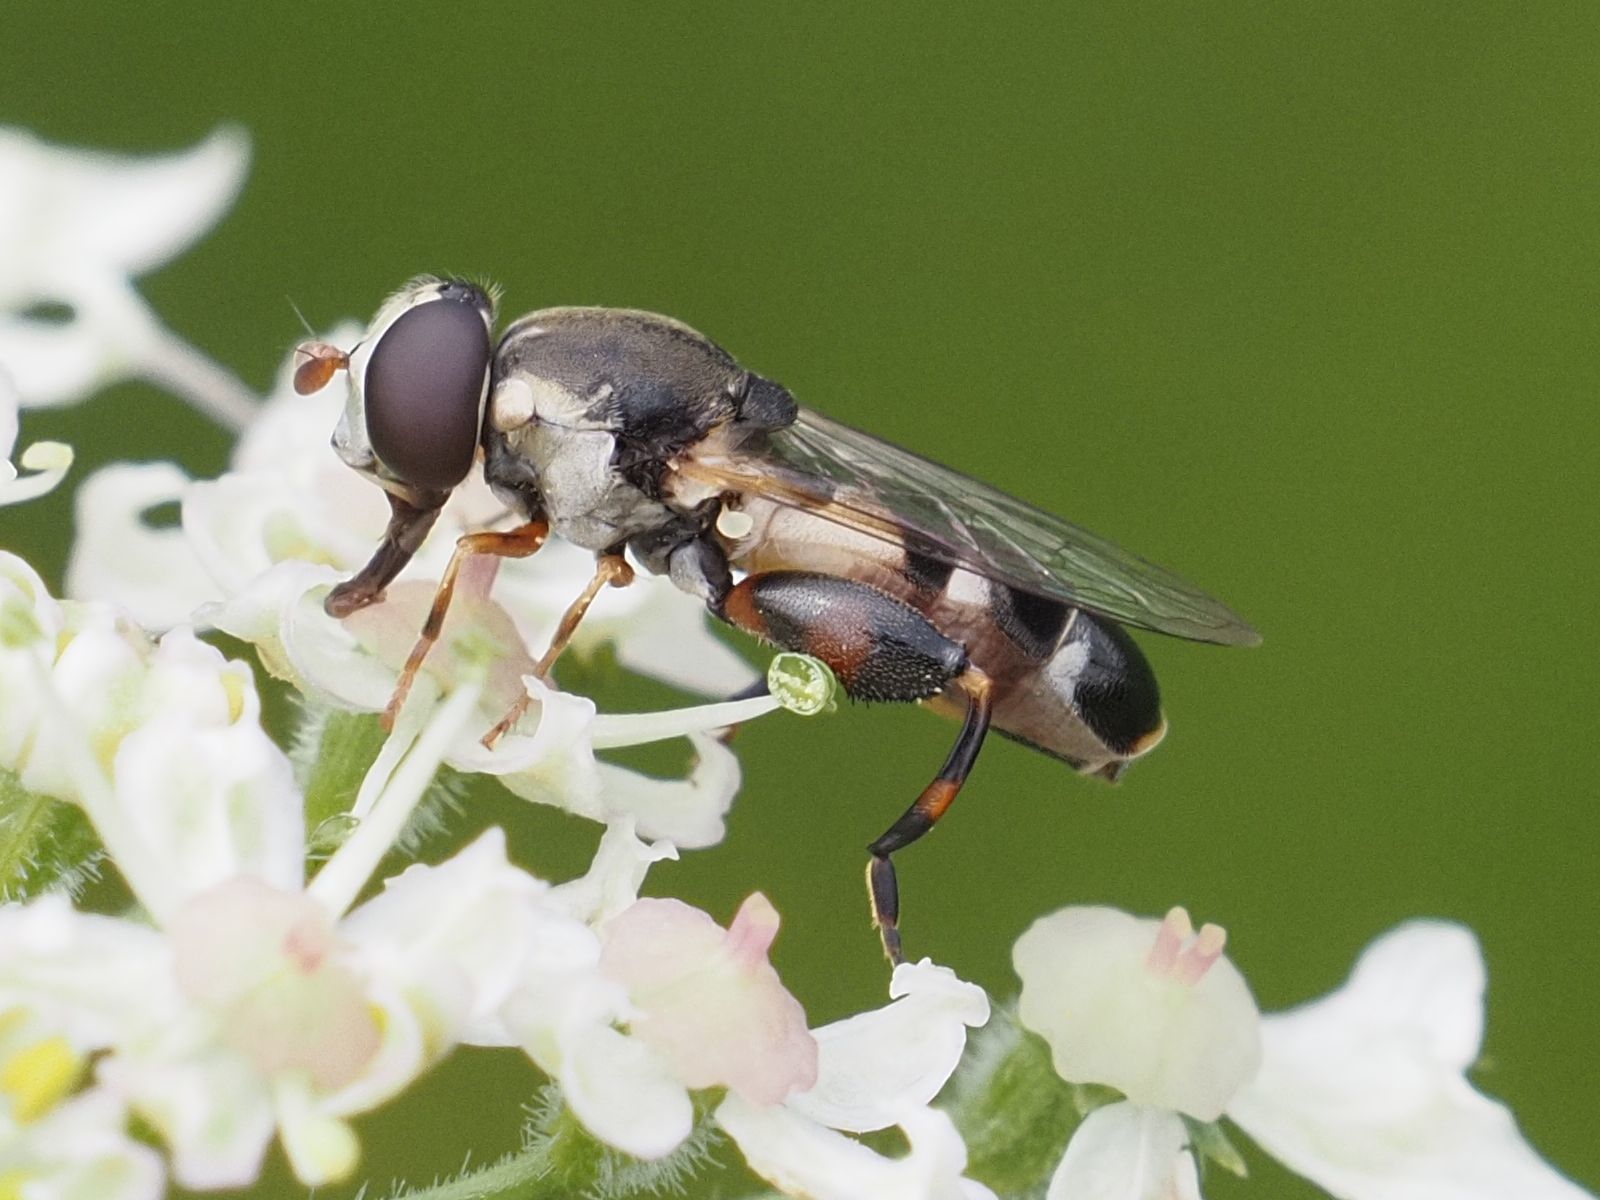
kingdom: Animalia
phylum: Arthropoda
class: Insecta
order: Diptera
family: Syrphidae
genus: Syritta
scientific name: Syritta pipiens
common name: Hover fly
